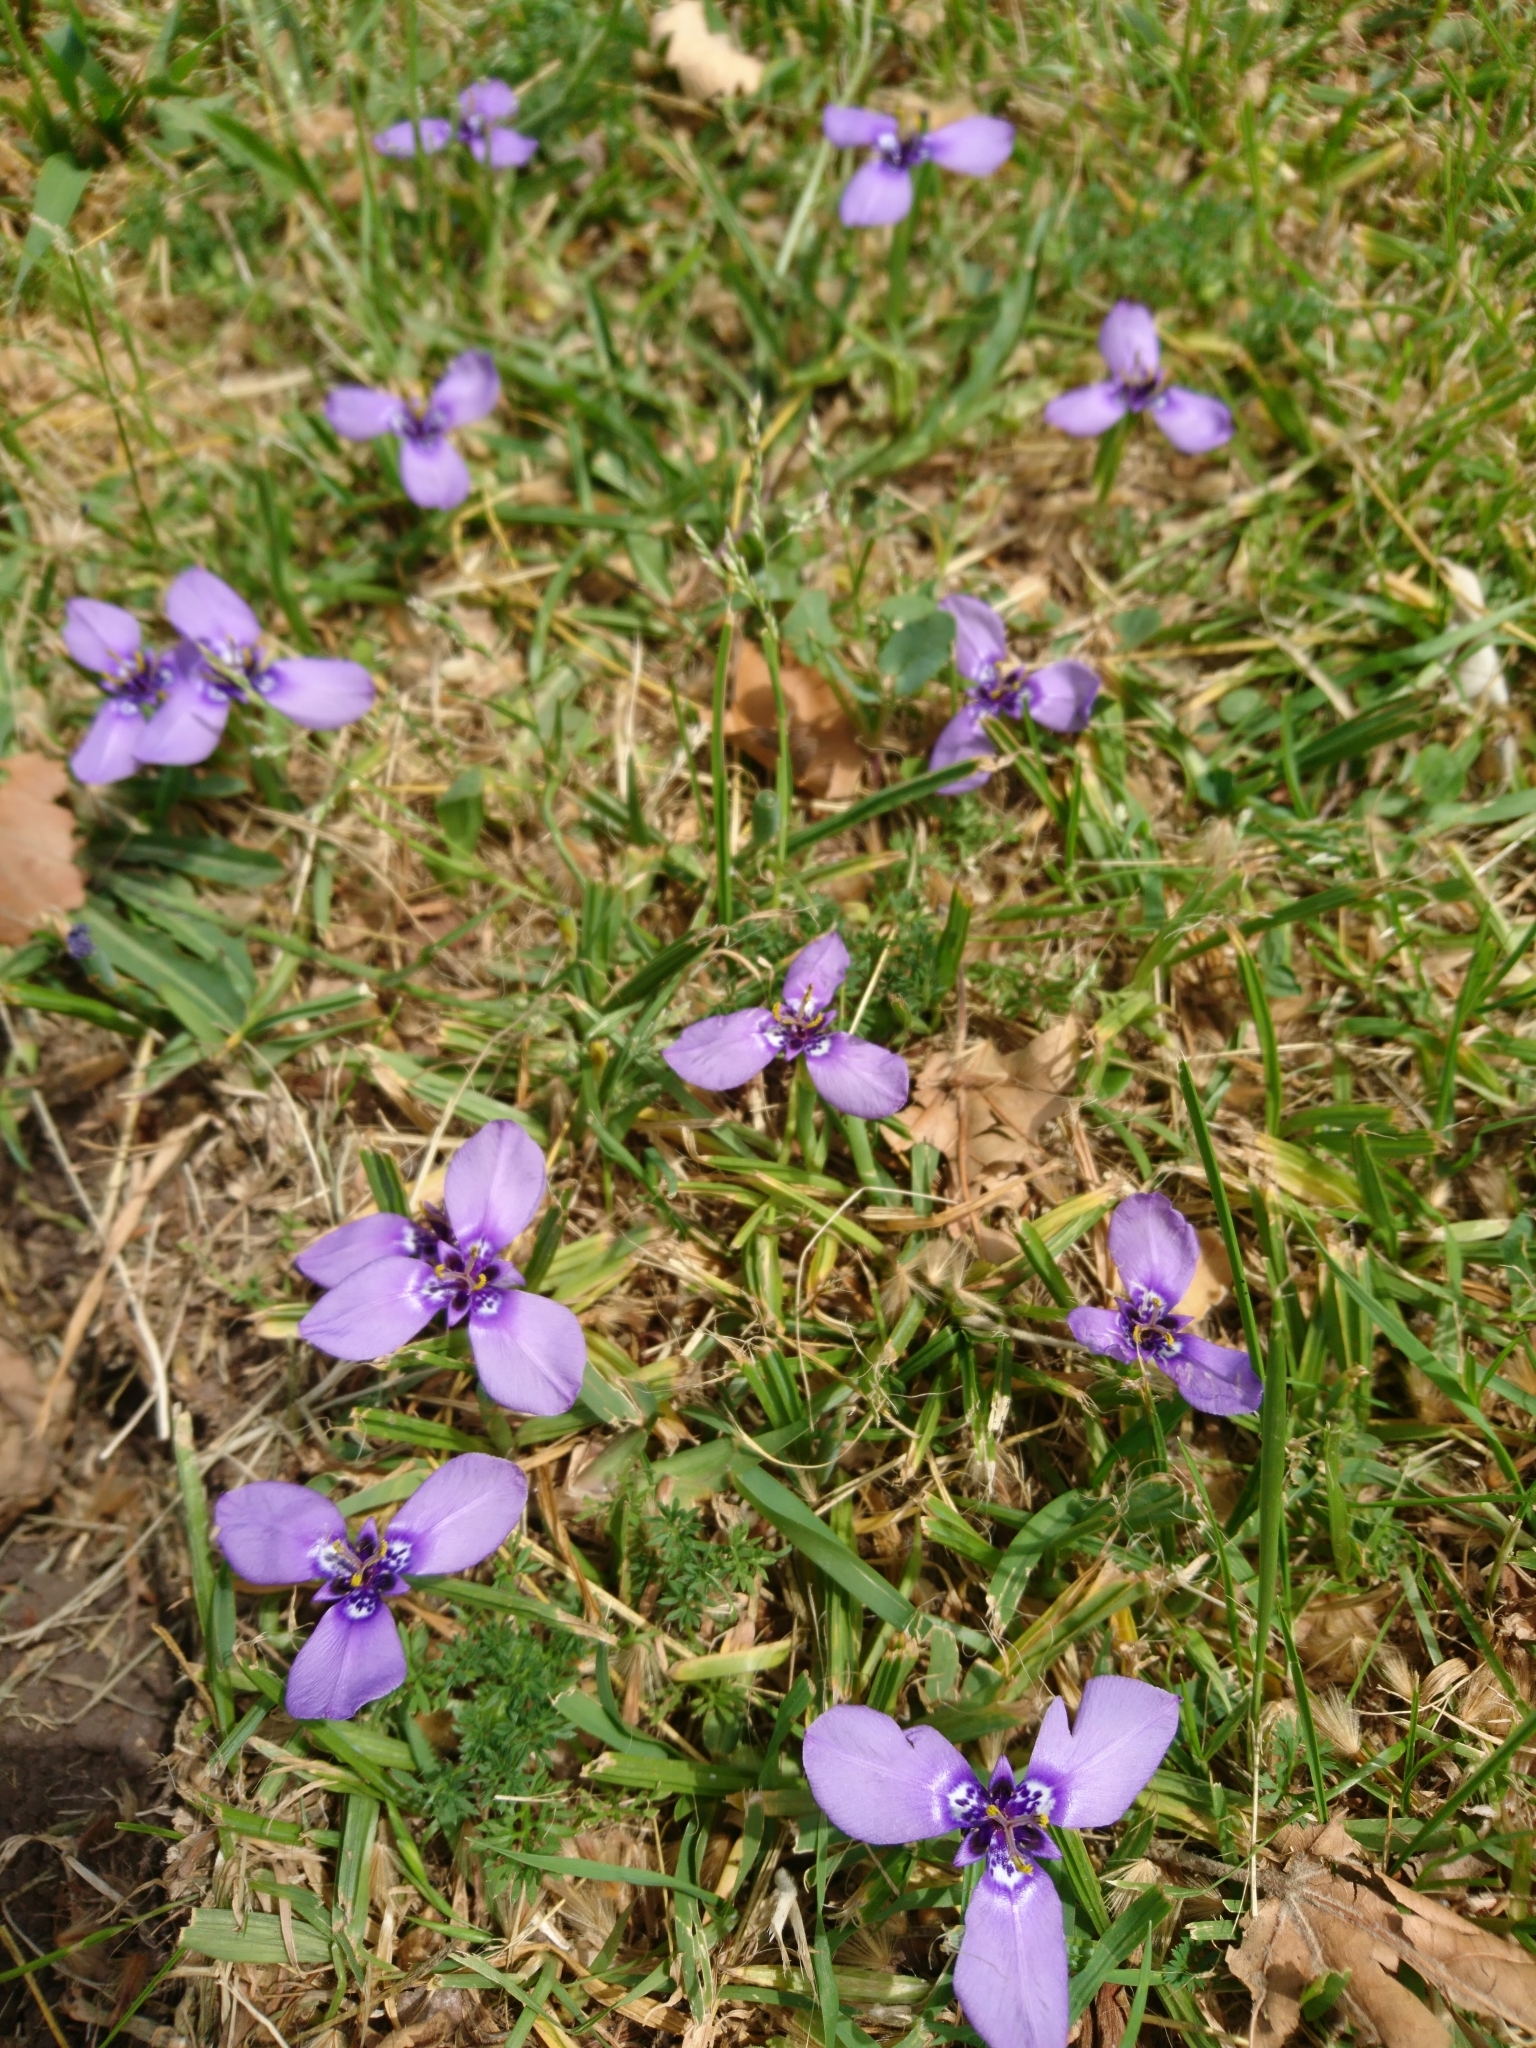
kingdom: Plantae
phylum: Tracheophyta
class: Liliopsida
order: Asparagales
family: Iridaceae
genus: Herbertia
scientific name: Herbertia lahue
